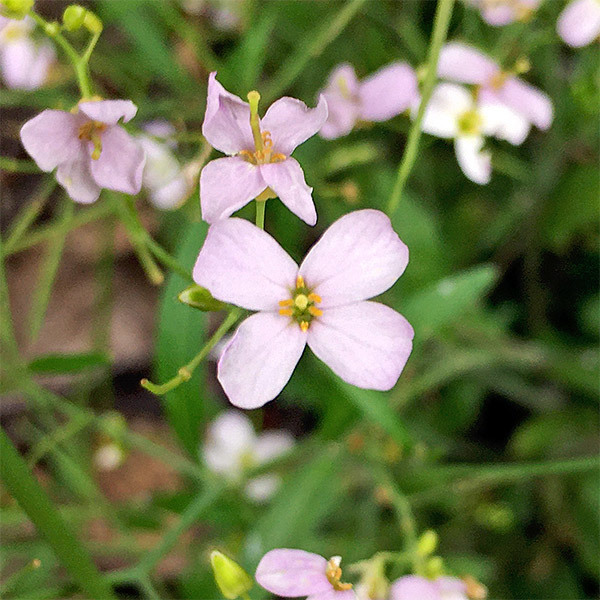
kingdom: Plantae
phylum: Tracheophyta
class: Magnoliopsida
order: Brassicales
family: Brassicaceae
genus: Arabidopsis
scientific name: Arabidopsis arenosa
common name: Sand rock-cress
